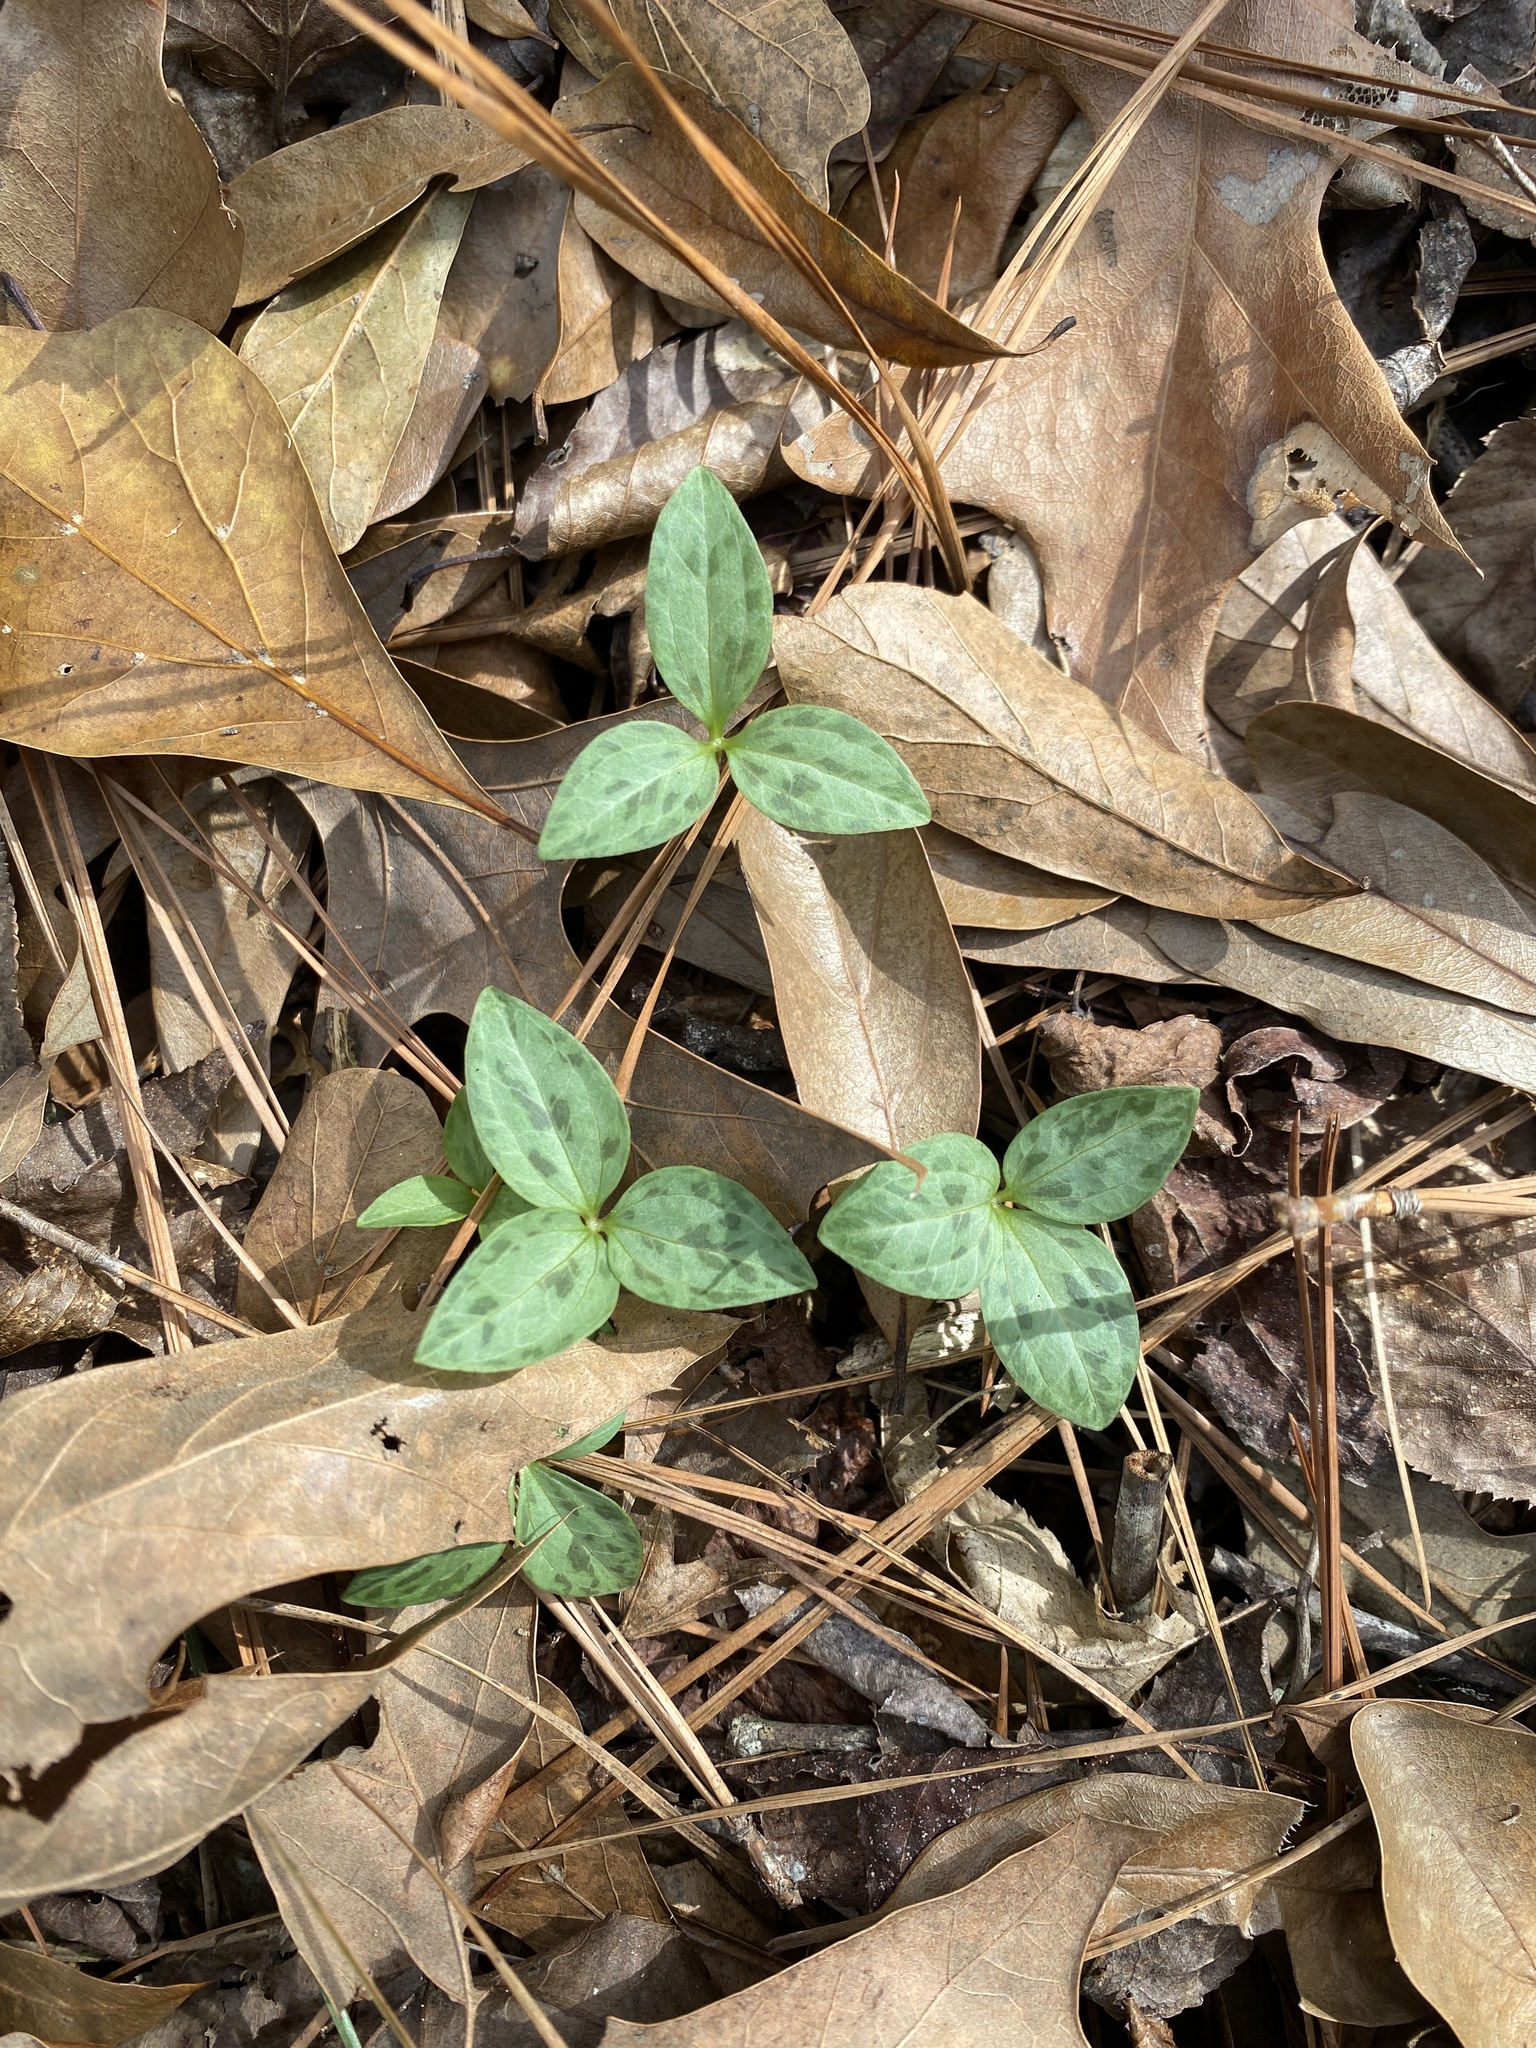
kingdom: Plantae
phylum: Tracheophyta
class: Liliopsida
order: Liliales
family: Melanthiaceae
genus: Trillium
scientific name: Trillium foetidissimum
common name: Mississippi river trillium
